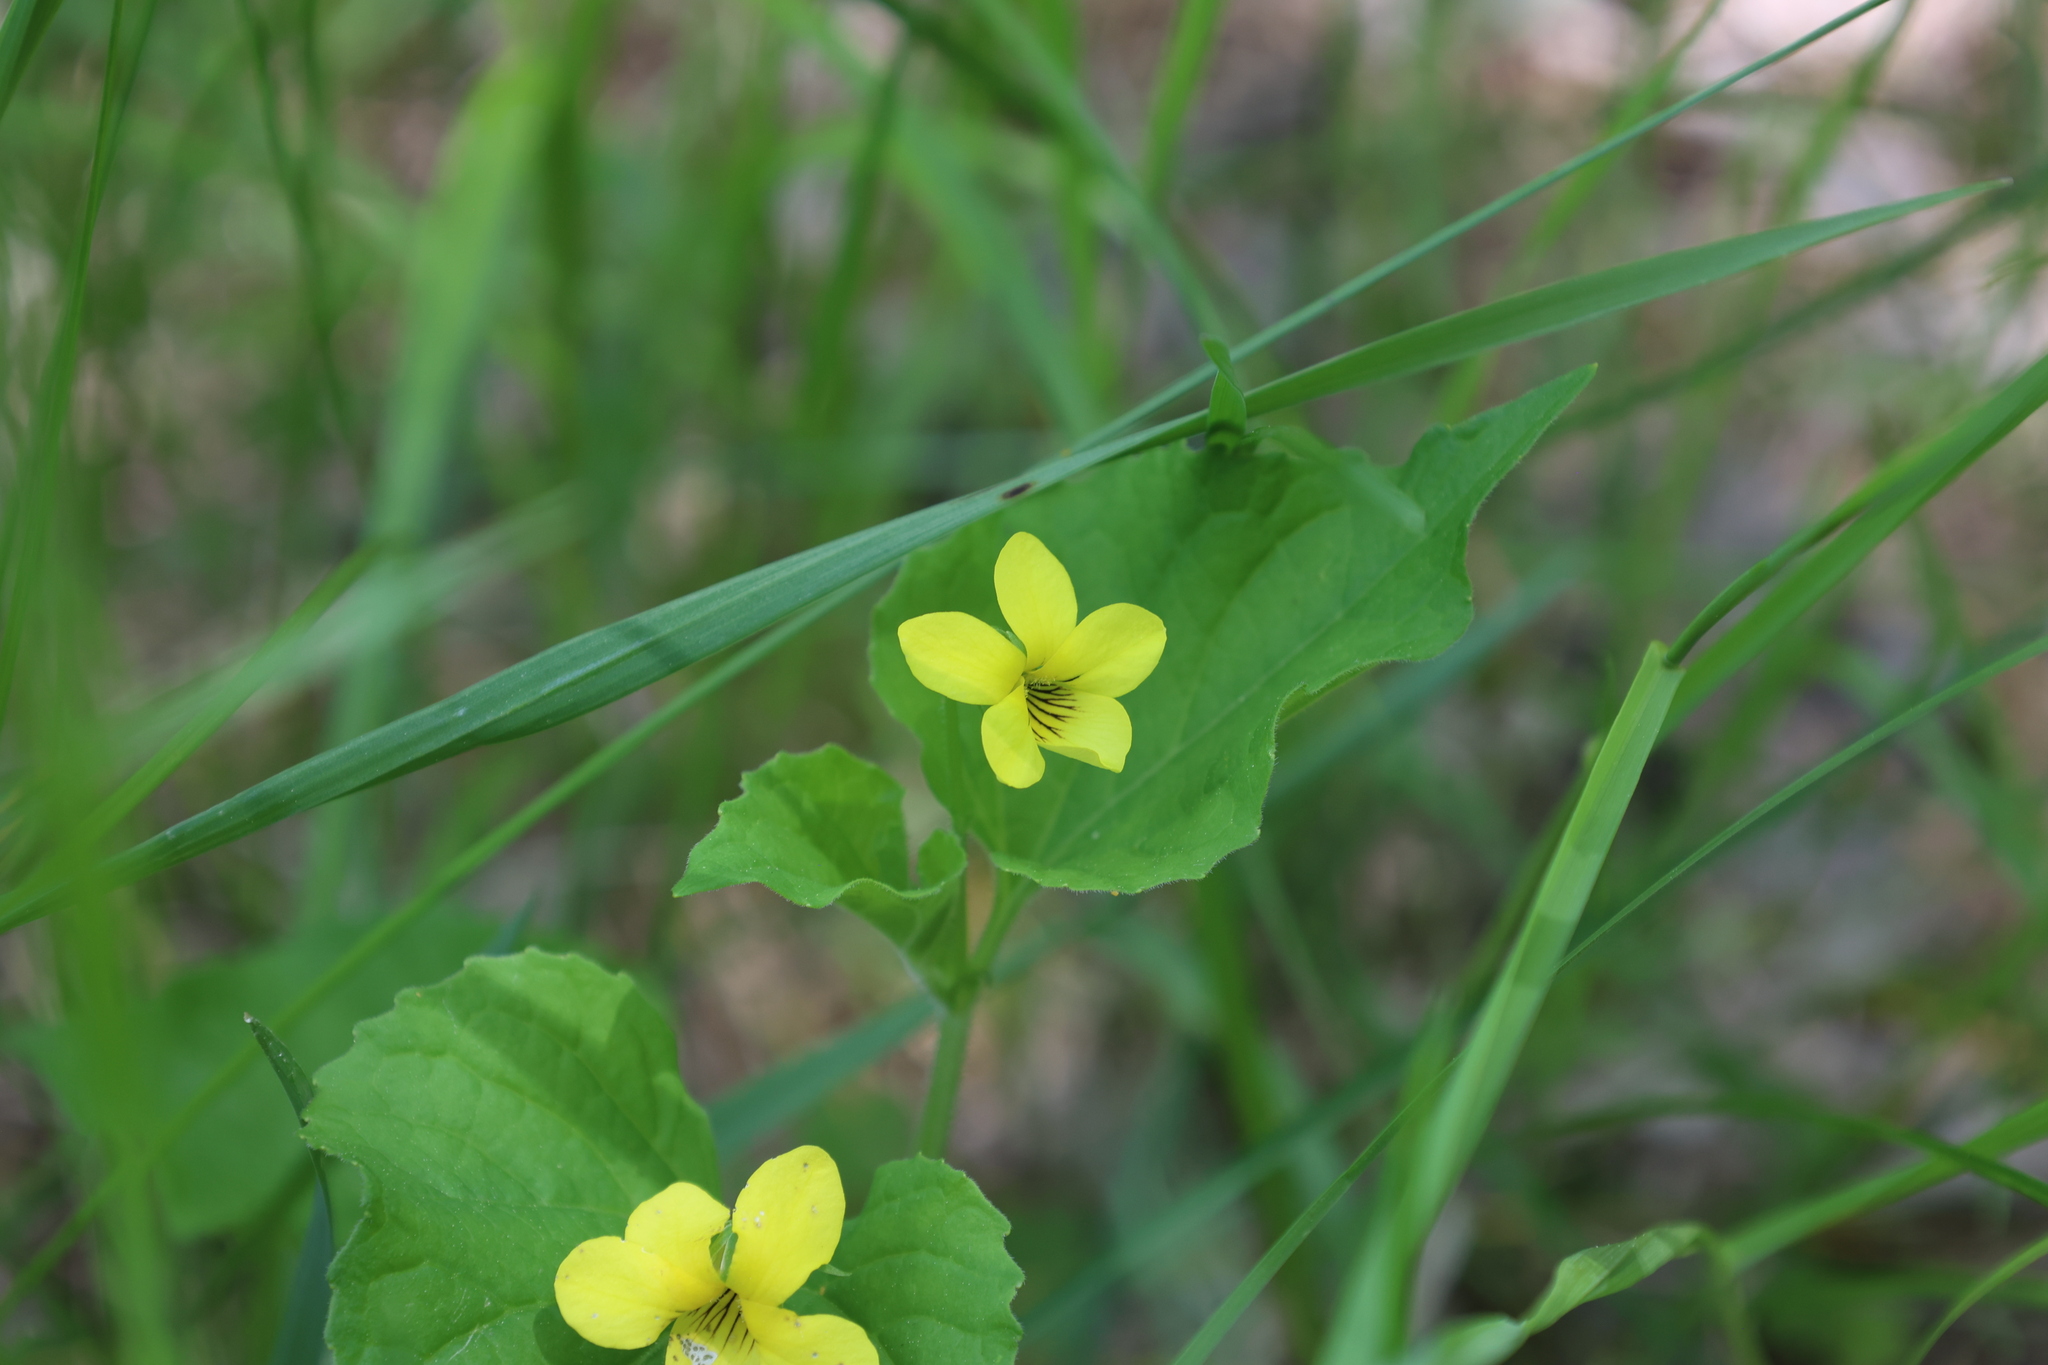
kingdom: Plantae
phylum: Tracheophyta
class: Magnoliopsida
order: Malpighiales
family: Violaceae
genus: Viola
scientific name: Viola eriocarpa
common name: Smooth yellow violet
